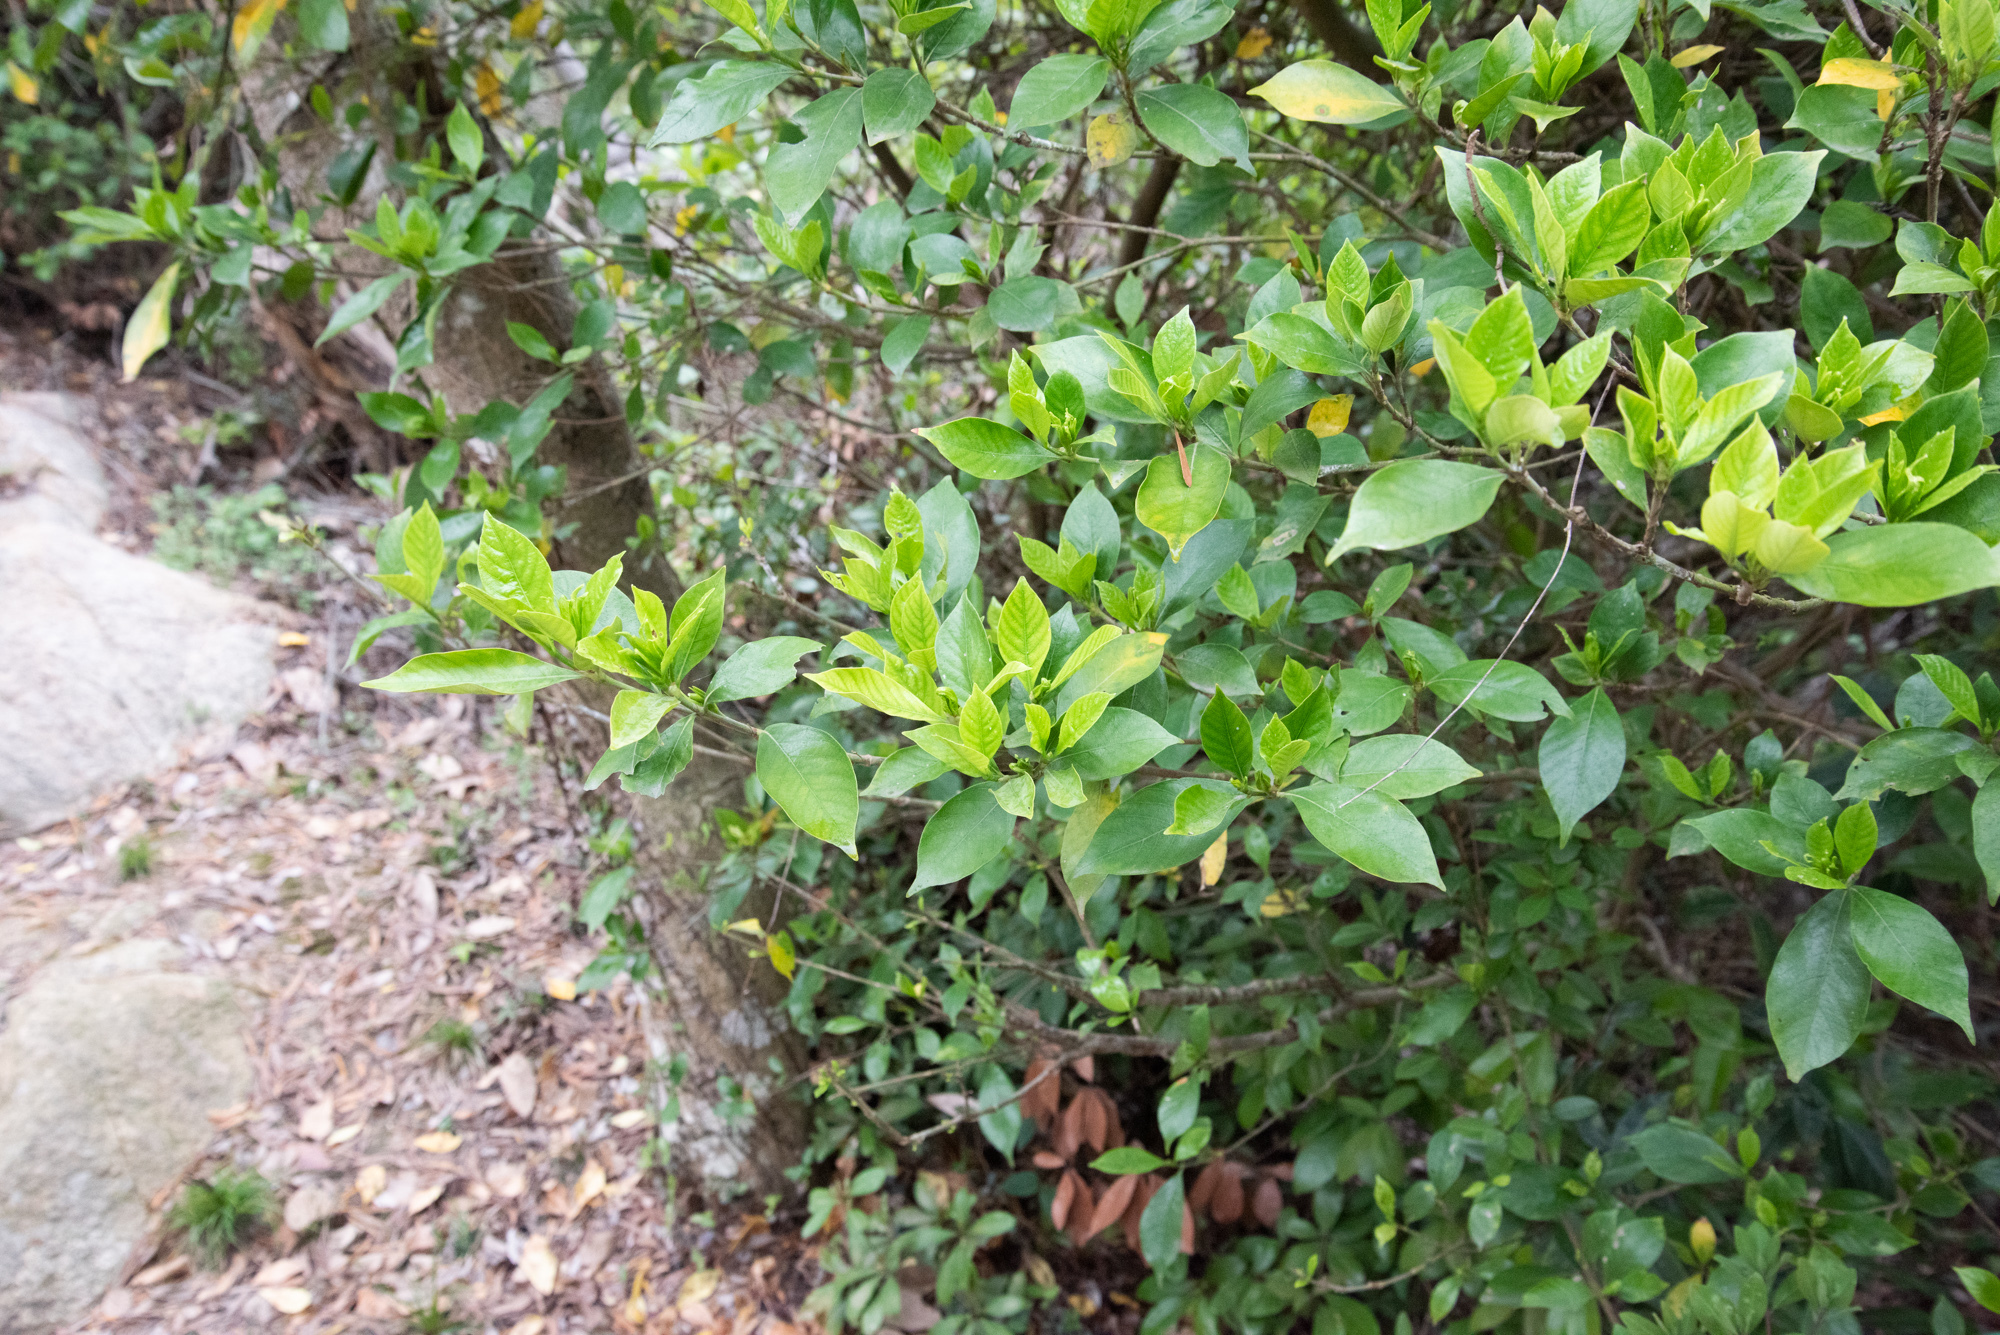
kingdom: Plantae
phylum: Tracheophyta
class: Magnoliopsida
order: Gentianales
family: Rubiaceae
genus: Gardenia
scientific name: Gardenia jasminoides
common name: Cape-jasmine
